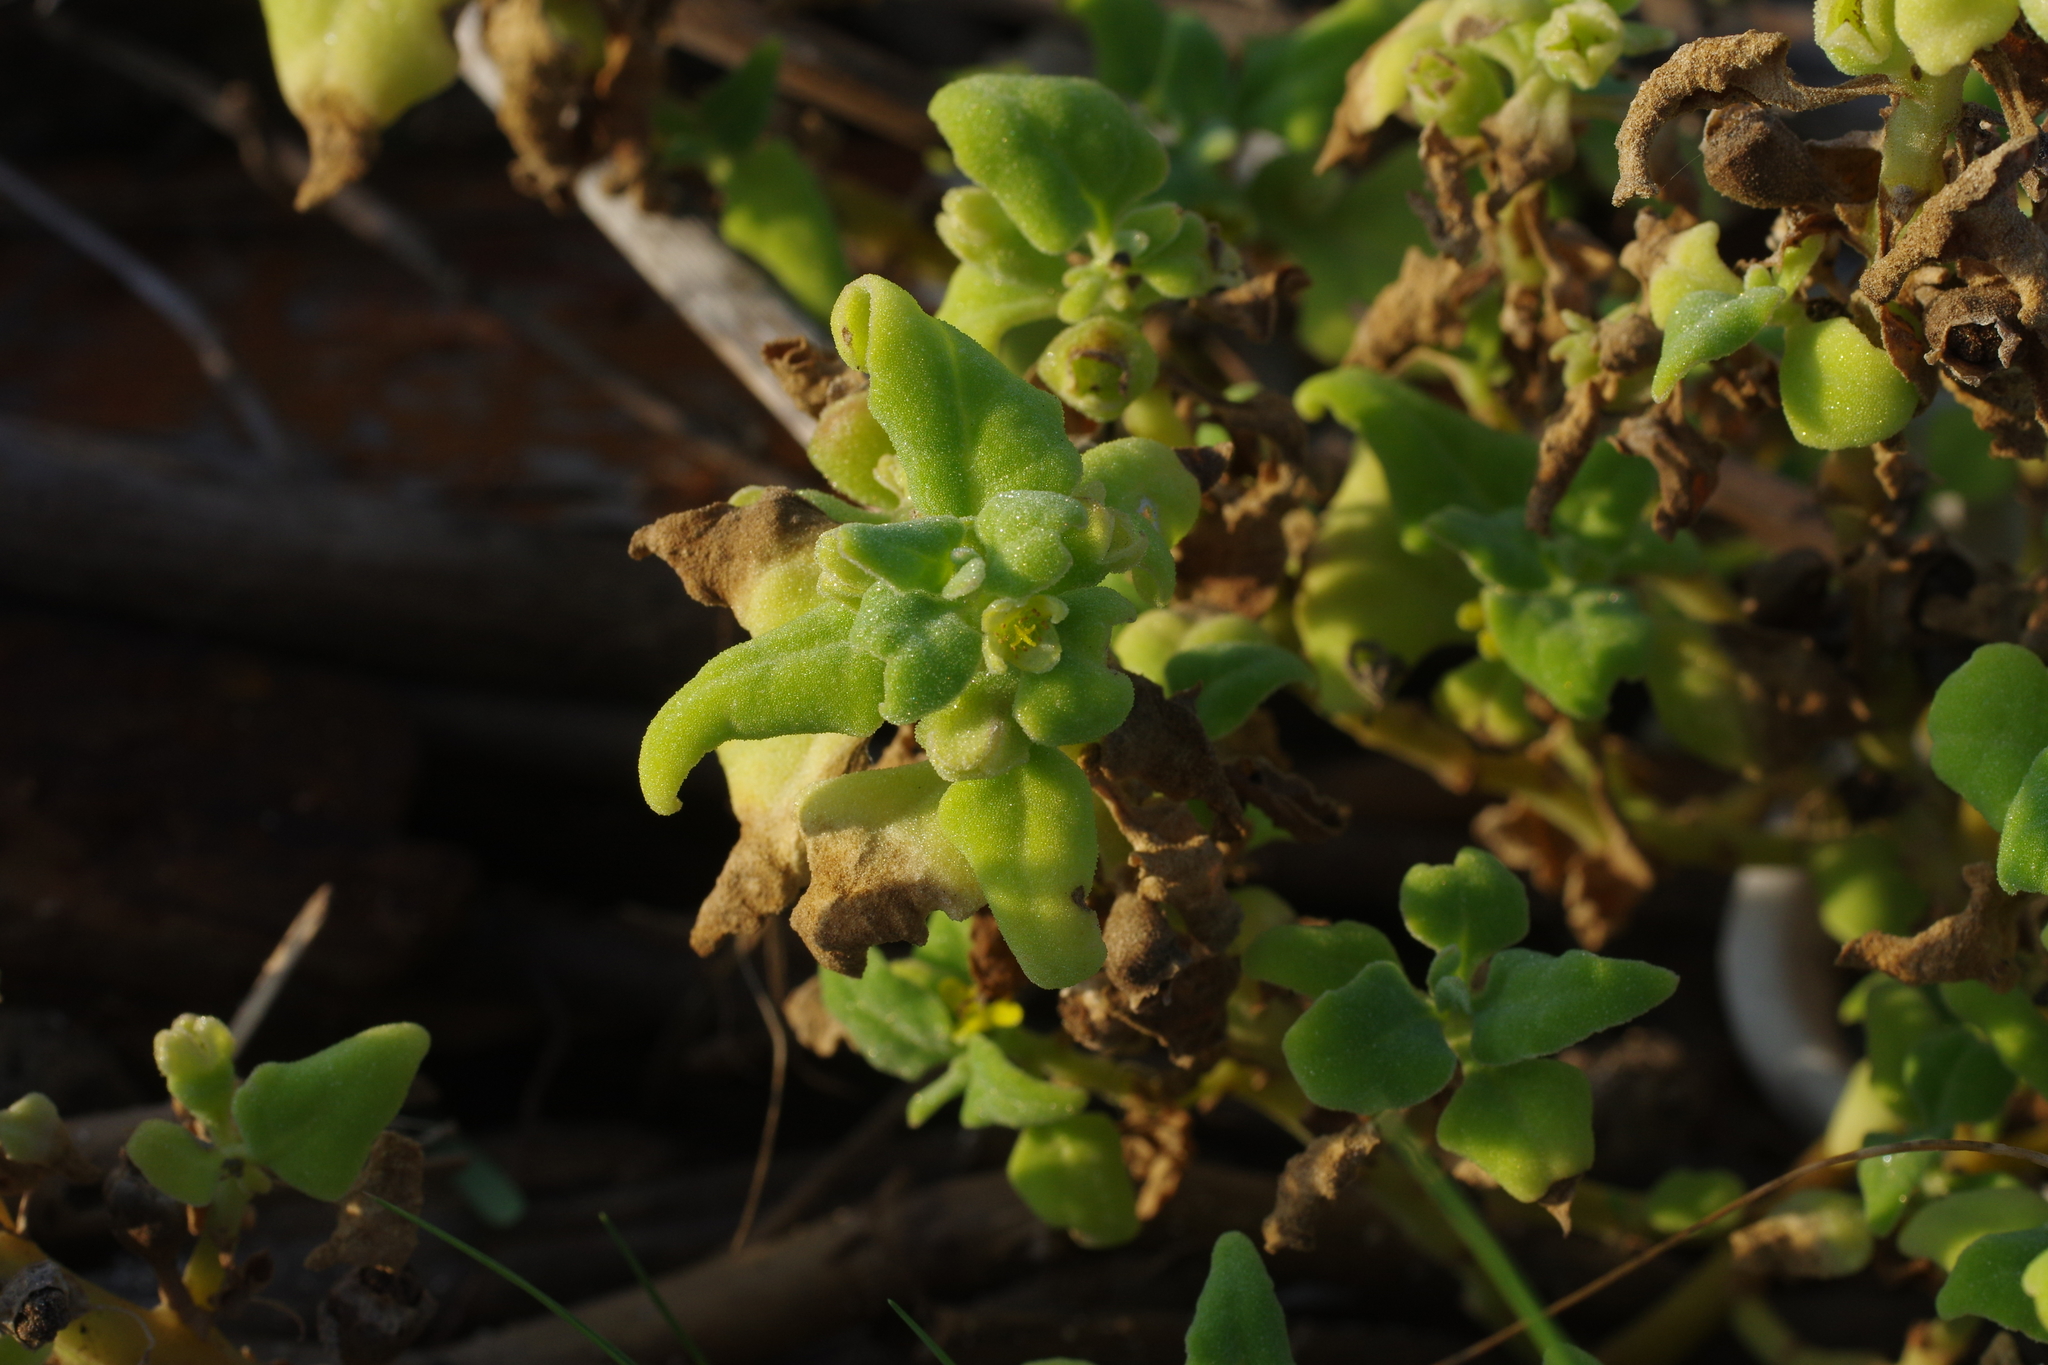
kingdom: Plantae
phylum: Tracheophyta
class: Magnoliopsida
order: Caryophyllales
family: Aizoaceae
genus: Tetragonia
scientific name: Tetragonia tetragonoides
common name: New zealand-spinach
